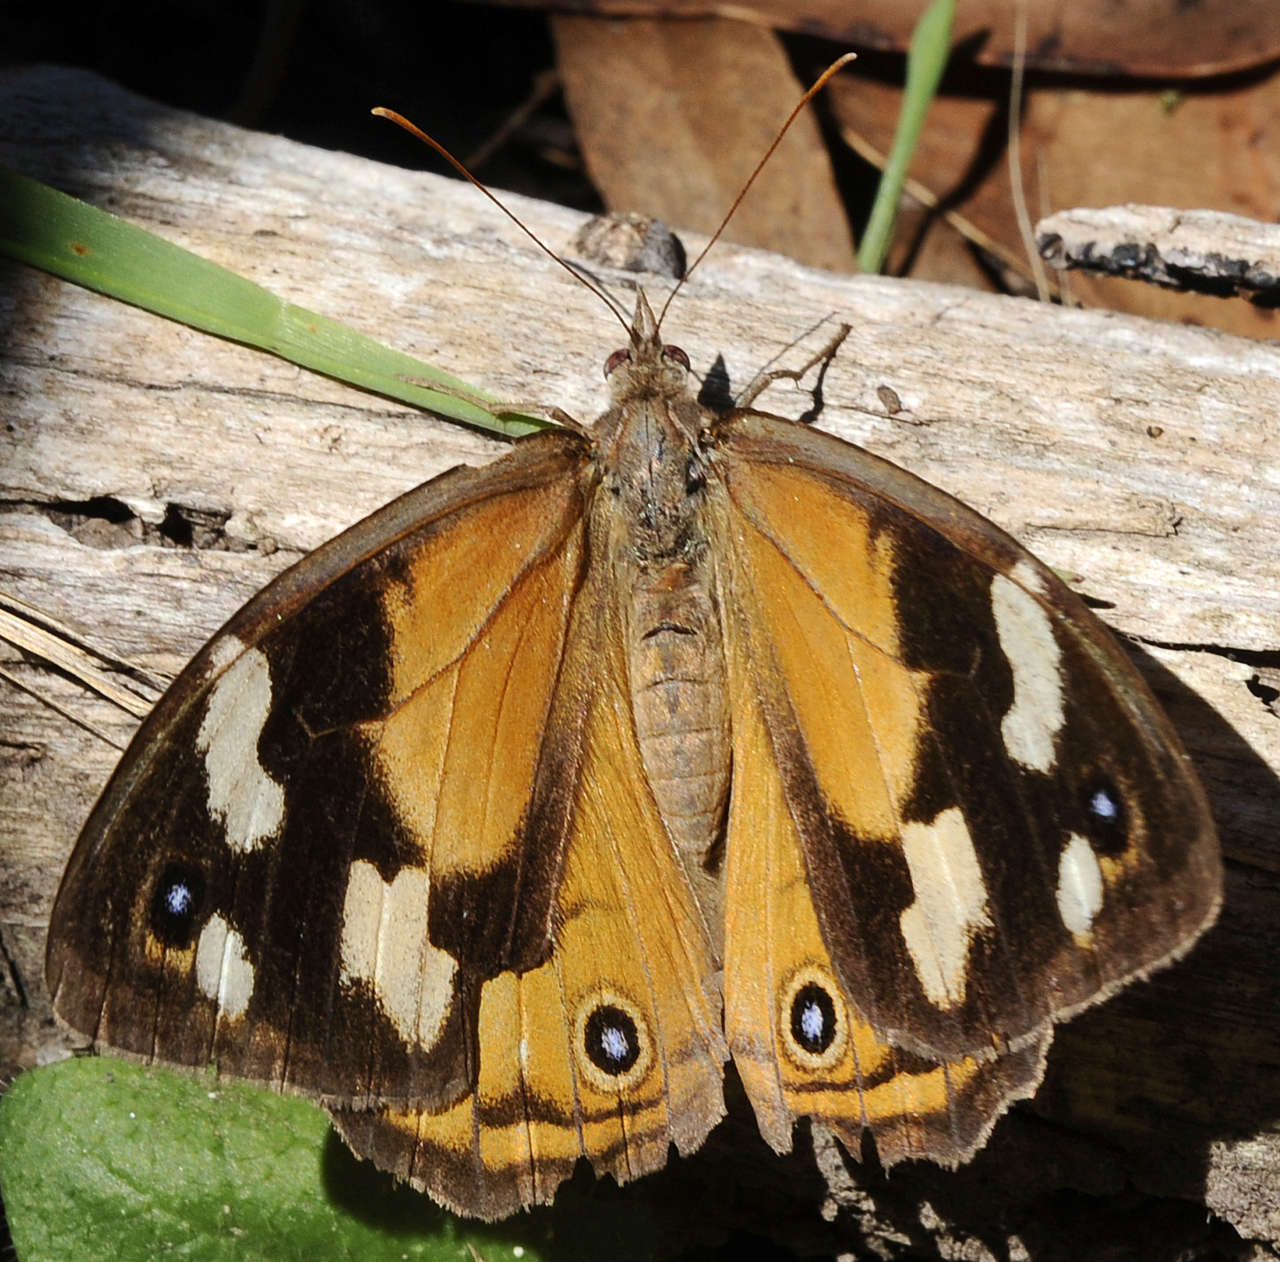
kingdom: Animalia
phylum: Arthropoda
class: Insecta
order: Lepidoptera
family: Nymphalidae
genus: Heteronympha
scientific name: Heteronympha merope
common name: Common brown
